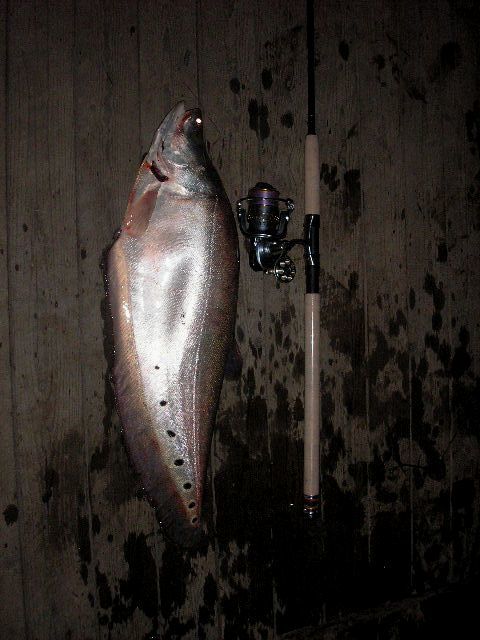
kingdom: Animalia
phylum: Chordata
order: Osteoglossiformes
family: Notopteridae
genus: Chitala
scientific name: Chitala ornata
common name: Clown knifefish
